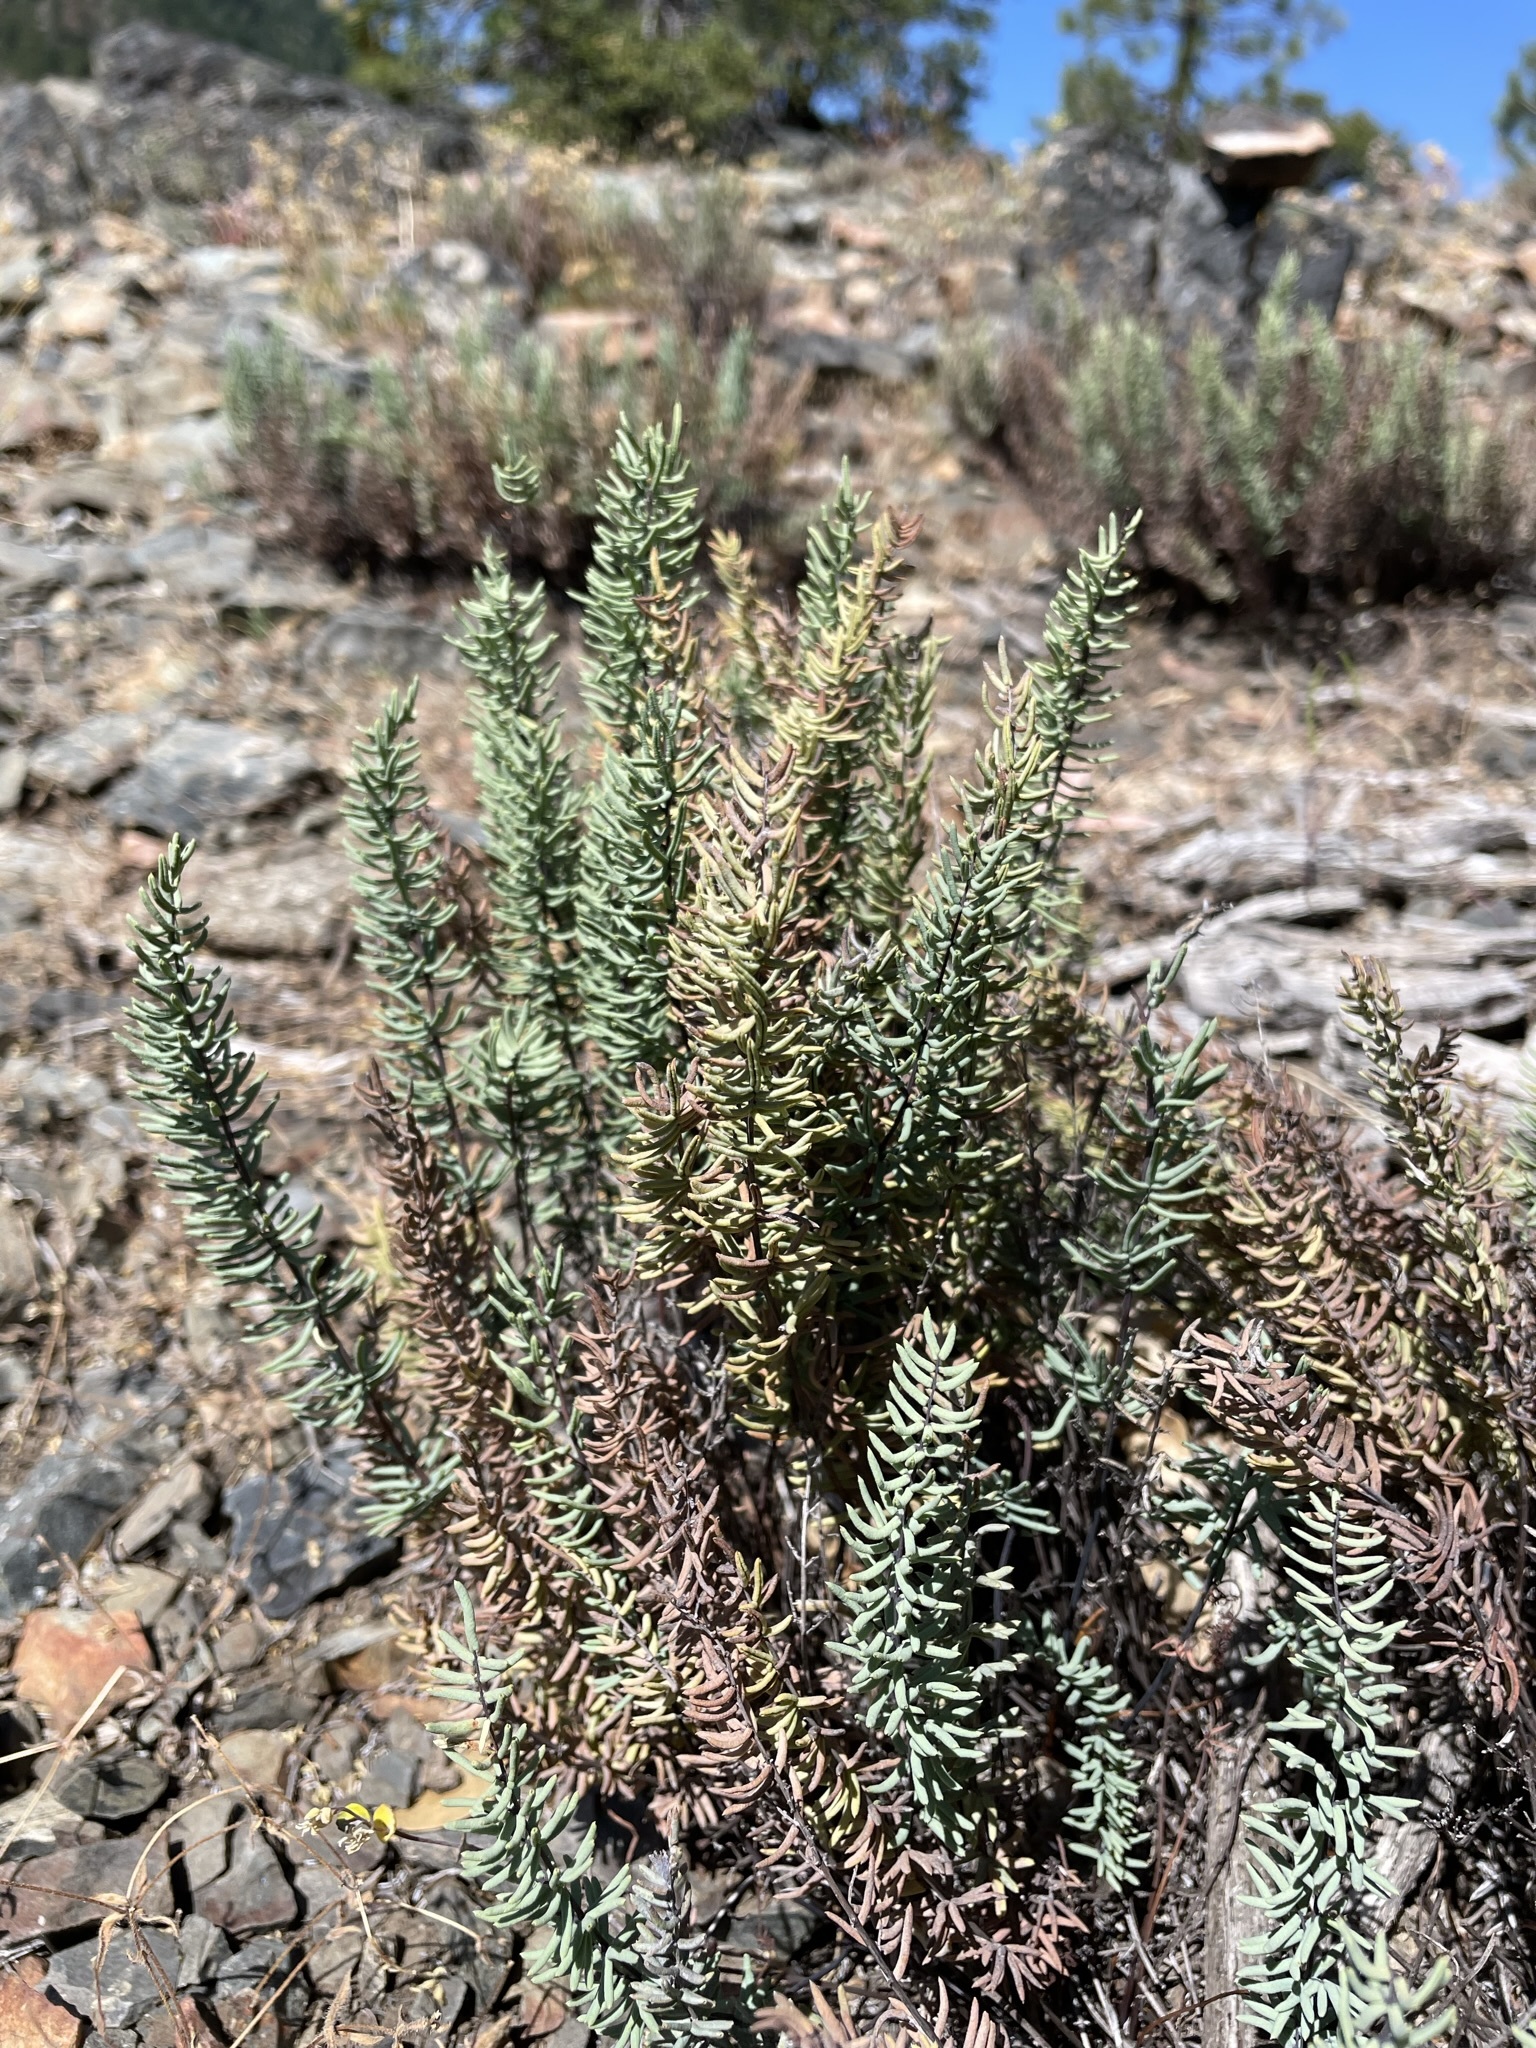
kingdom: Plantae
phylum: Tracheophyta
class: Polypodiopsida
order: Polypodiales
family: Pteridaceae
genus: Pellaea
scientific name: Pellaea brachyptera
